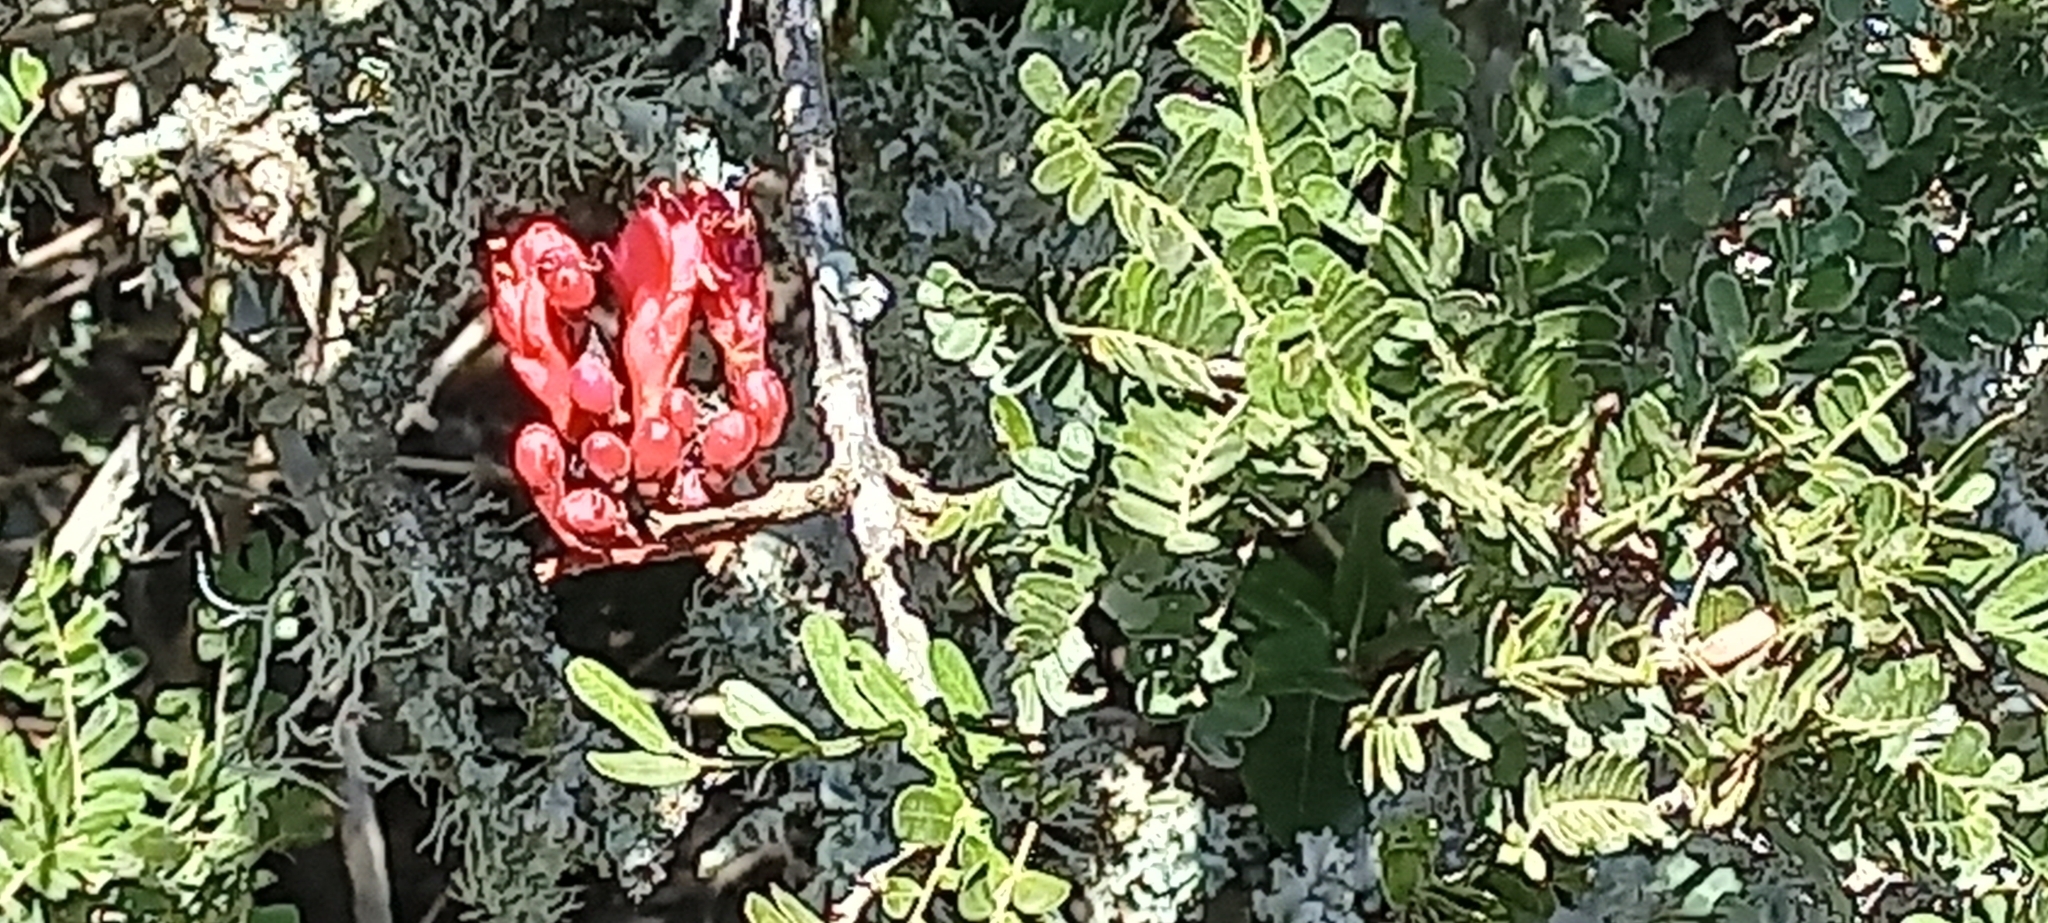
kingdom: Plantae
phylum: Tracheophyta
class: Magnoliopsida
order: Fabales
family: Fabaceae
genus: Schotia
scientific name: Schotia afra
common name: Hottentot's bean
